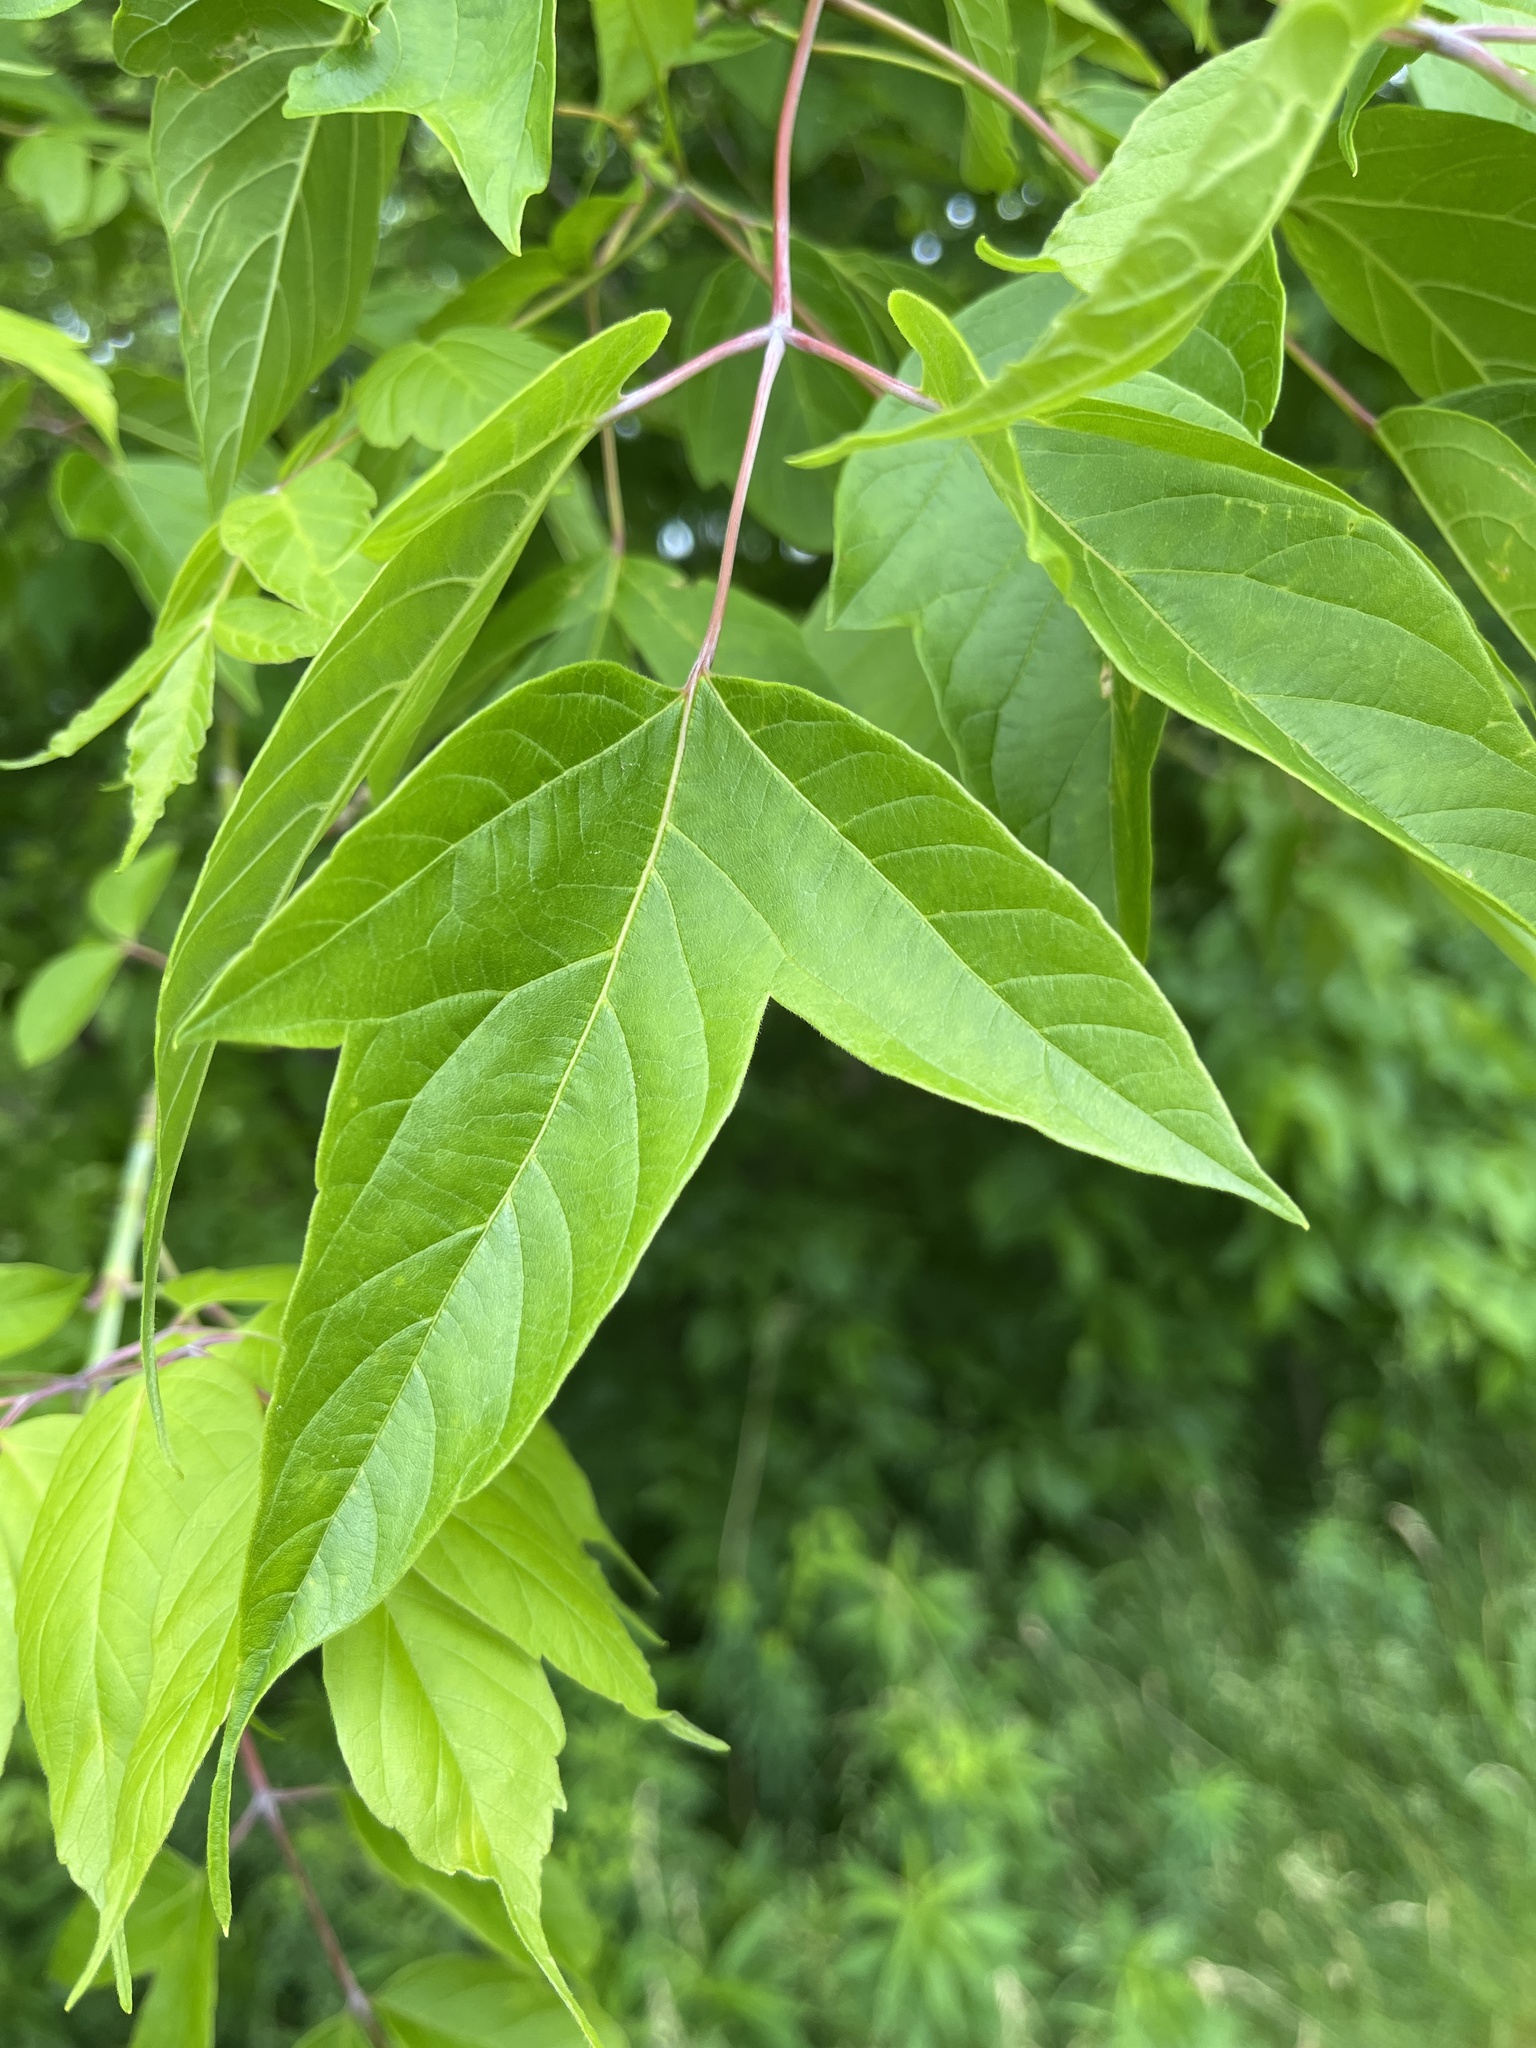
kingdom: Plantae
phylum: Tracheophyta
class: Magnoliopsida
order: Sapindales
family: Sapindaceae
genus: Acer
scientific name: Acer negundo
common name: Ashleaf maple
